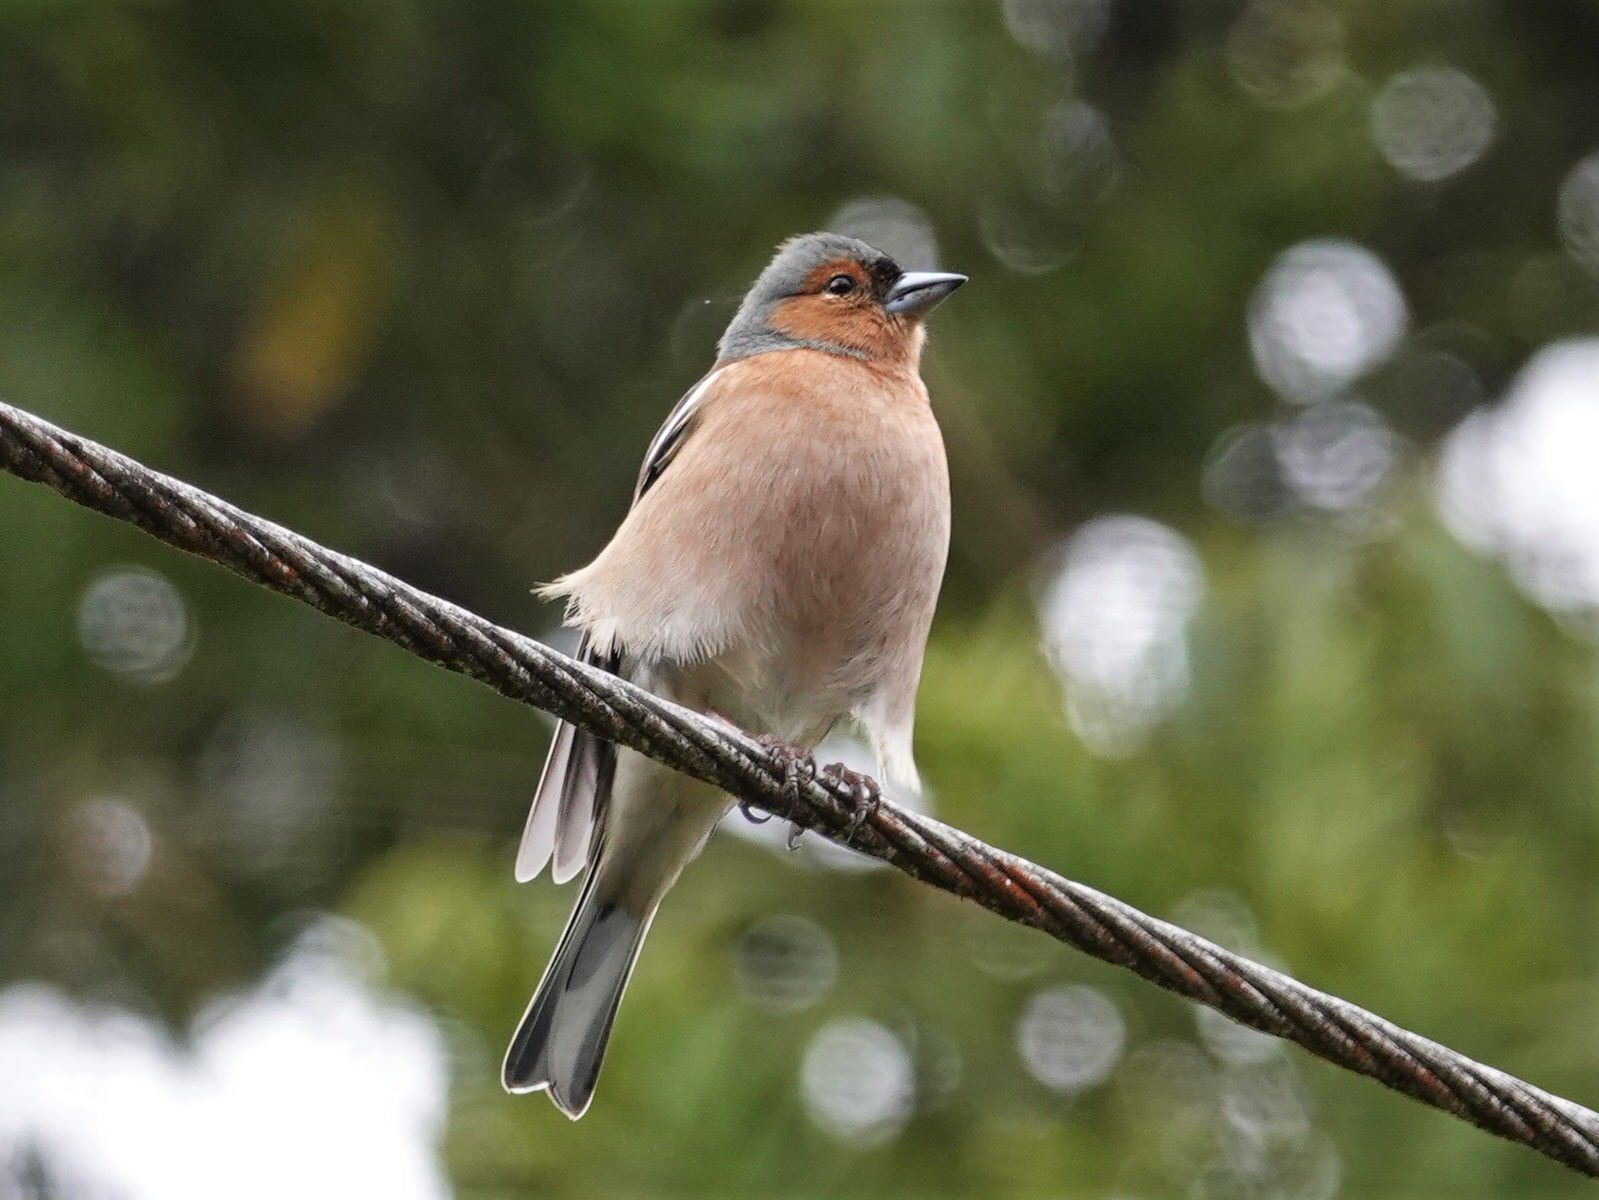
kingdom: Animalia
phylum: Chordata
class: Aves
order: Passeriformes
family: Fringillidae
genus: Fringilla
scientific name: Fringilla coelebs
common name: Common chaffinch
